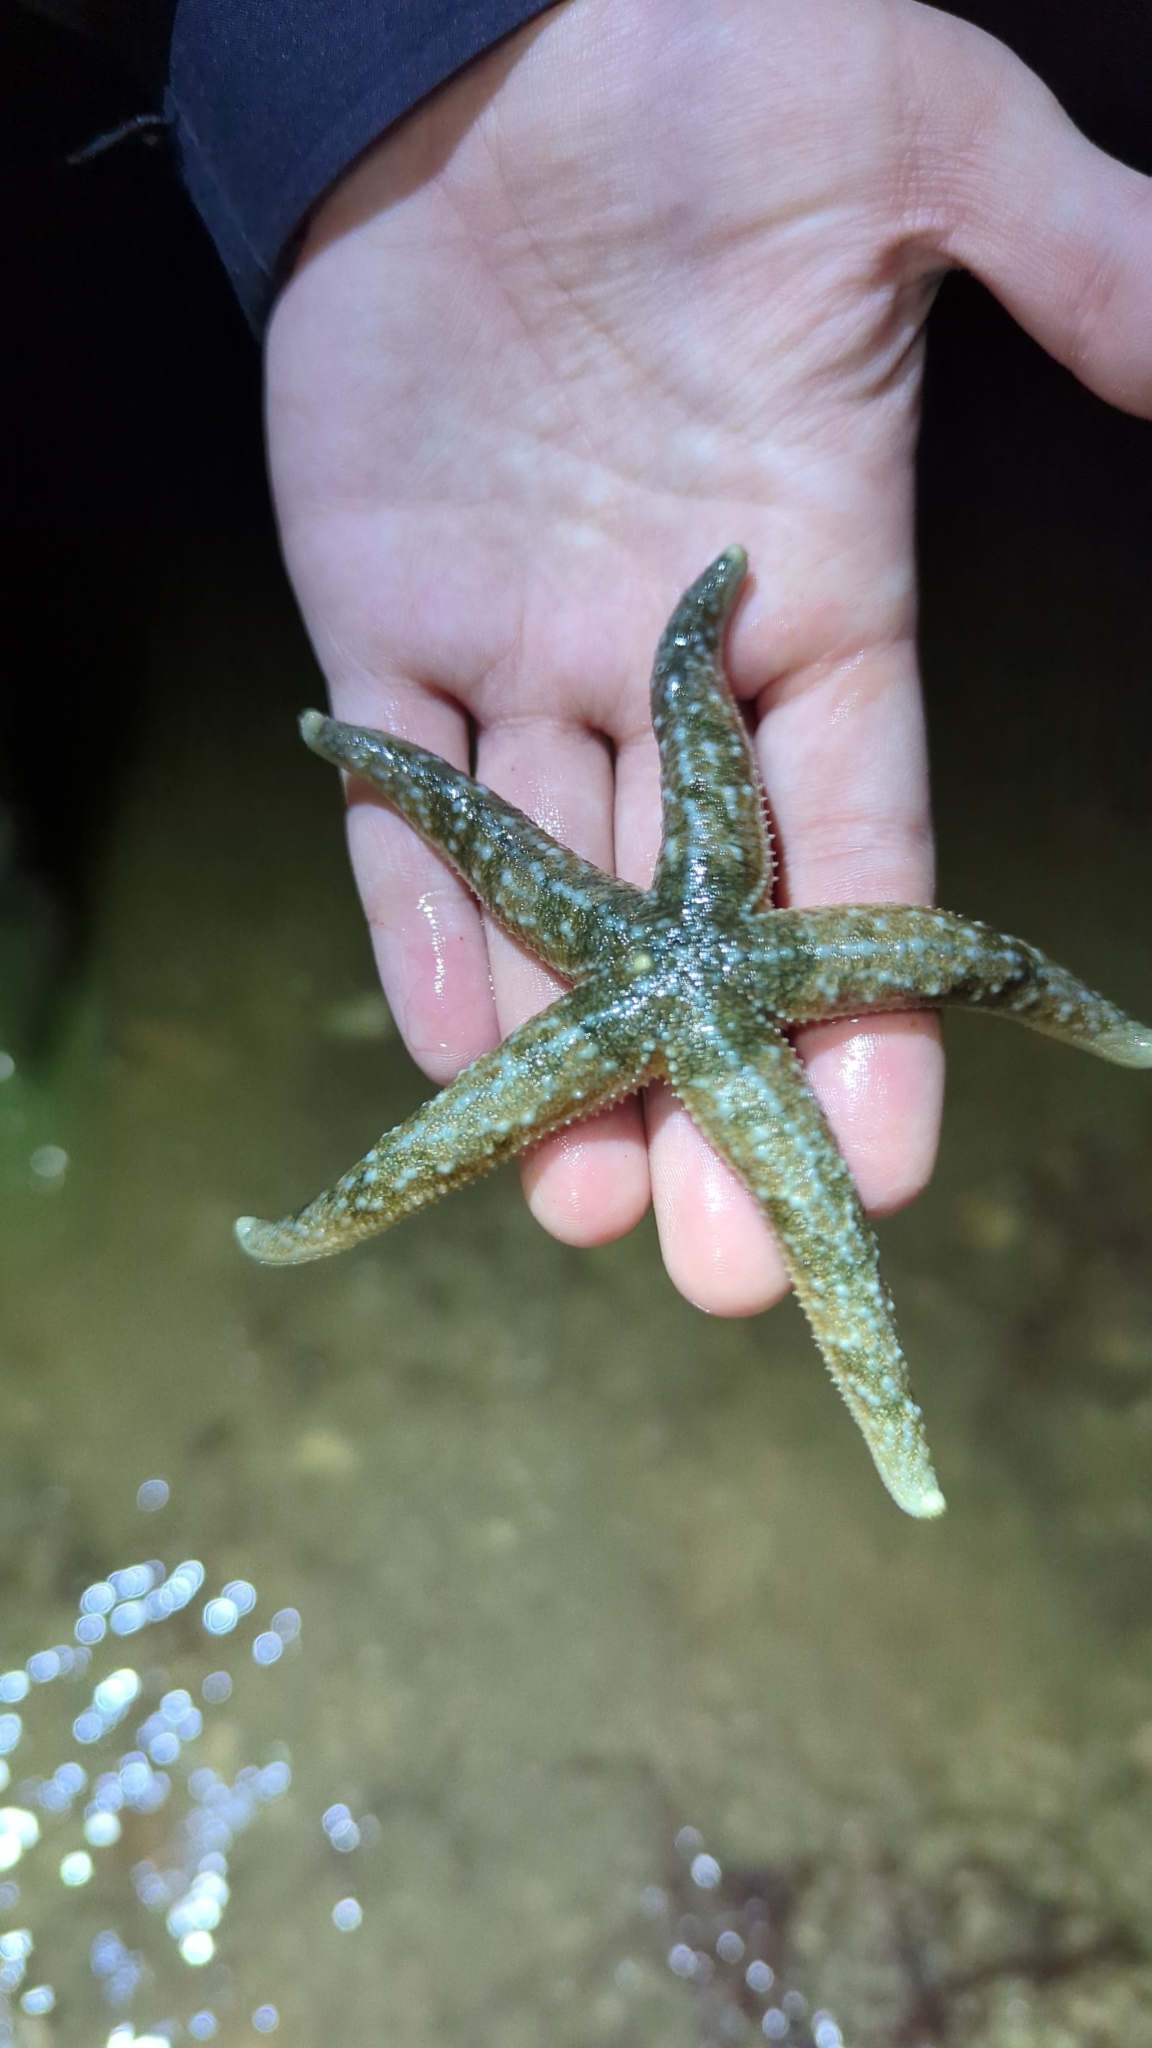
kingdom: Animalia
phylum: Echinodermata
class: Asteroidea
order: Forcipulatida
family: Asteriidae
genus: Evasterias
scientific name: Evasterias troschelii
